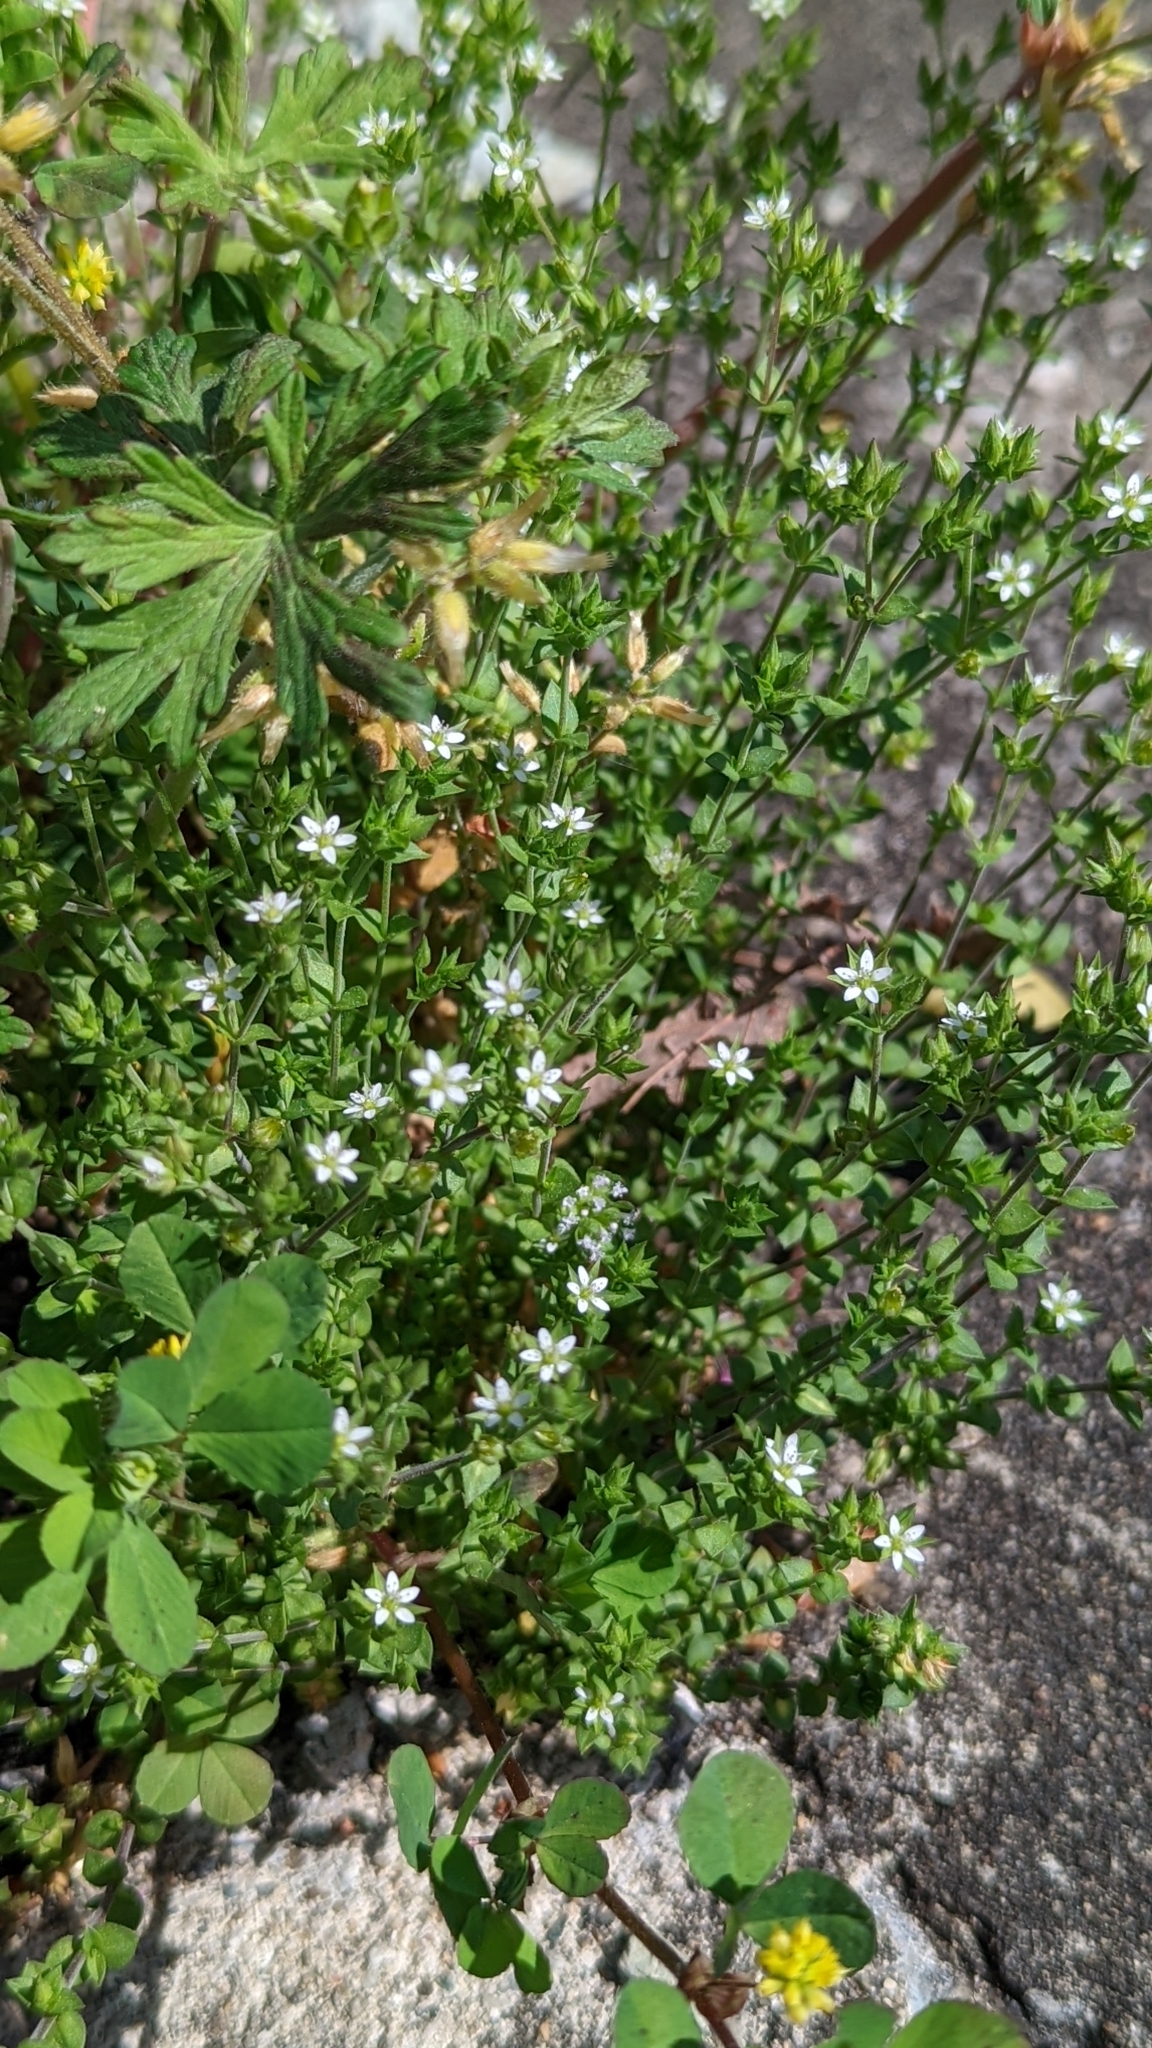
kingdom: Plantae
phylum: Tracheophyta
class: Magnoliopsida
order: Caryophyllales
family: Caryophyllaceae
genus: Arenaria
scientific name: Arenaria serpyllifolia
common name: Thyme-leaved sandwort
